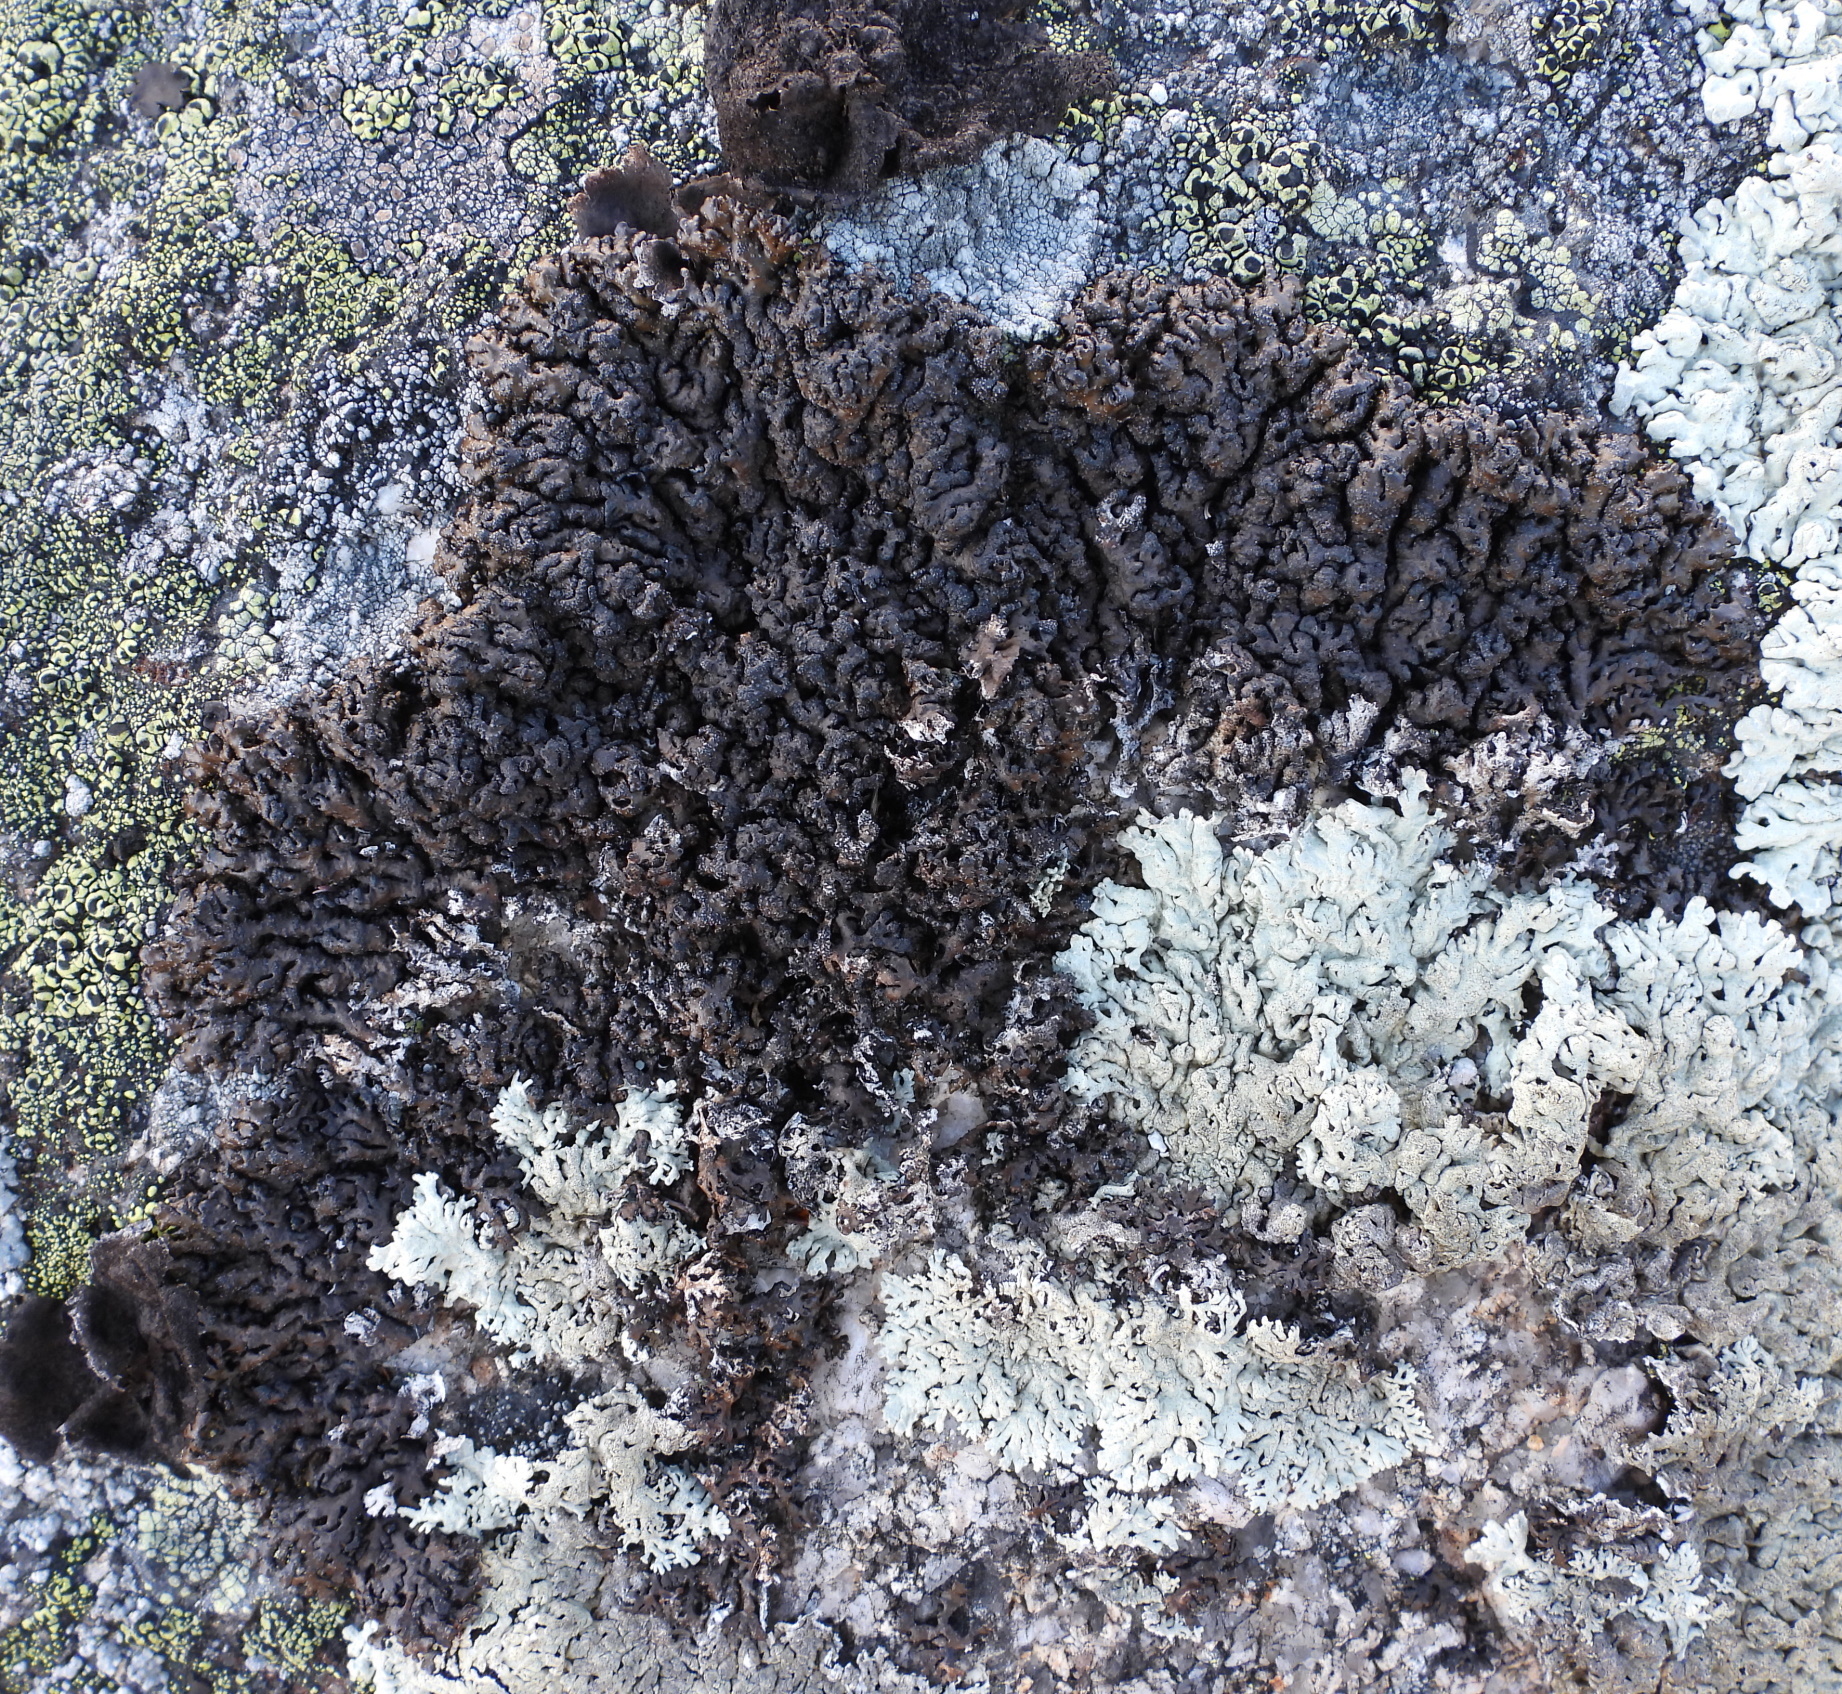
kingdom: Fungi
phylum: Ascomycota
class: Lecanoromycetes
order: Lecanorales
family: Parmeliaceae
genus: Melanelia
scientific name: Melanelia stygia
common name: Alpine camouflage lichen
